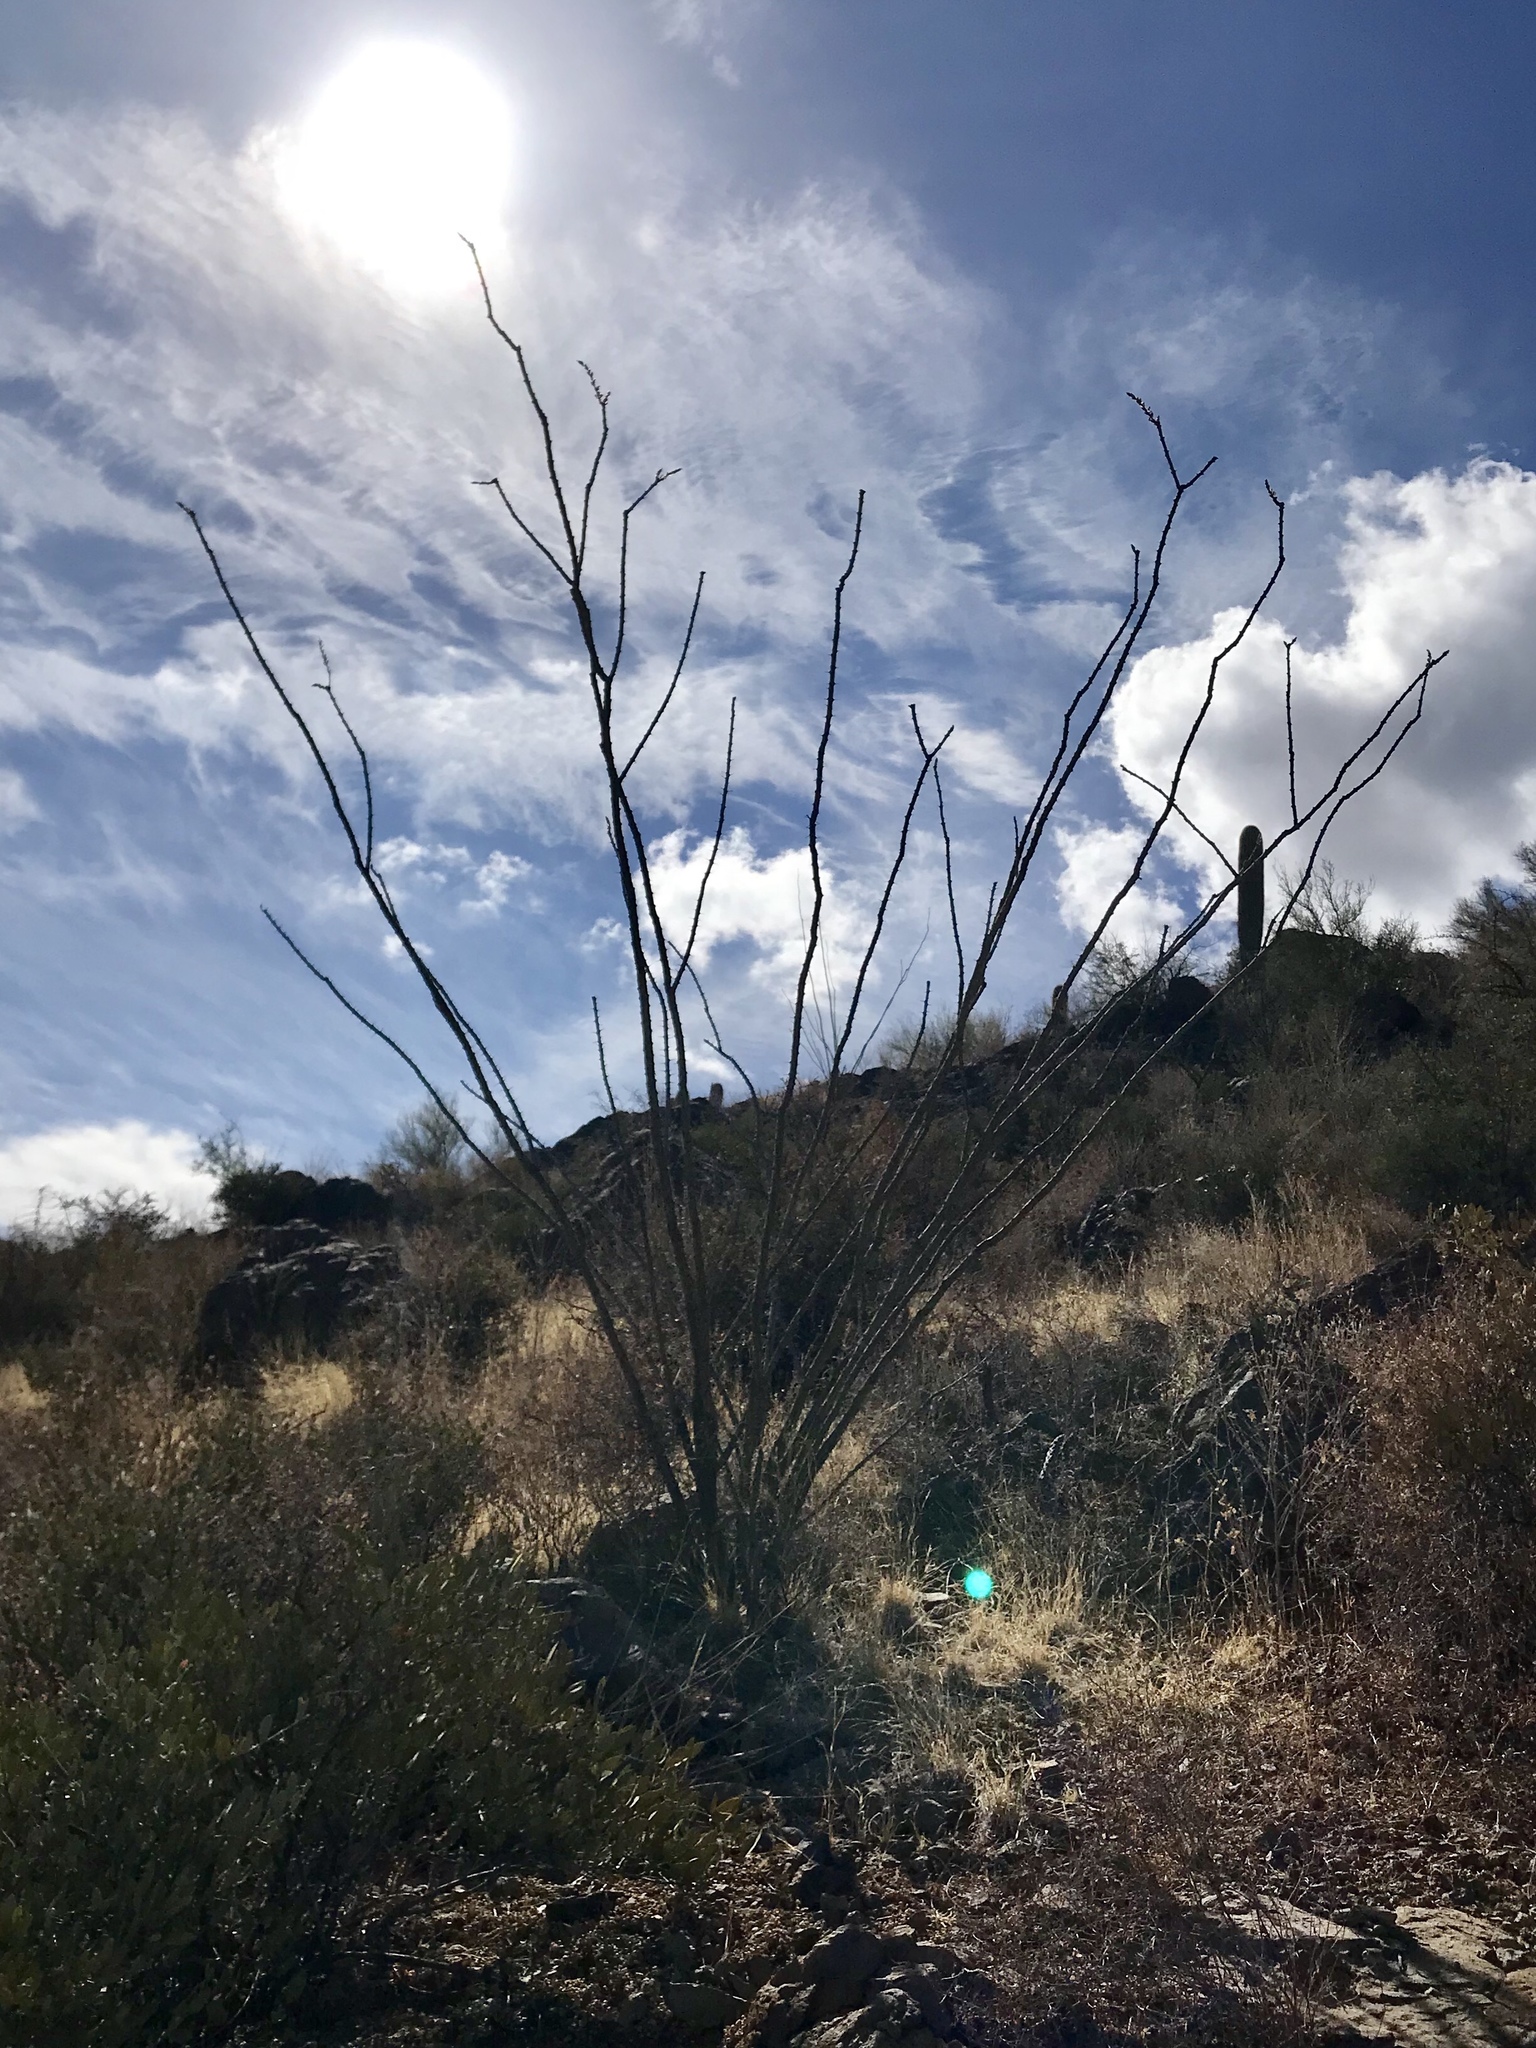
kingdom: Plantae
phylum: Tracheophyta
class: Magnoliopsida
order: Ericales
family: Fouquieriaceae
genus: Fouquieria
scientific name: Fouquieria splendens
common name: Vine-cactus
